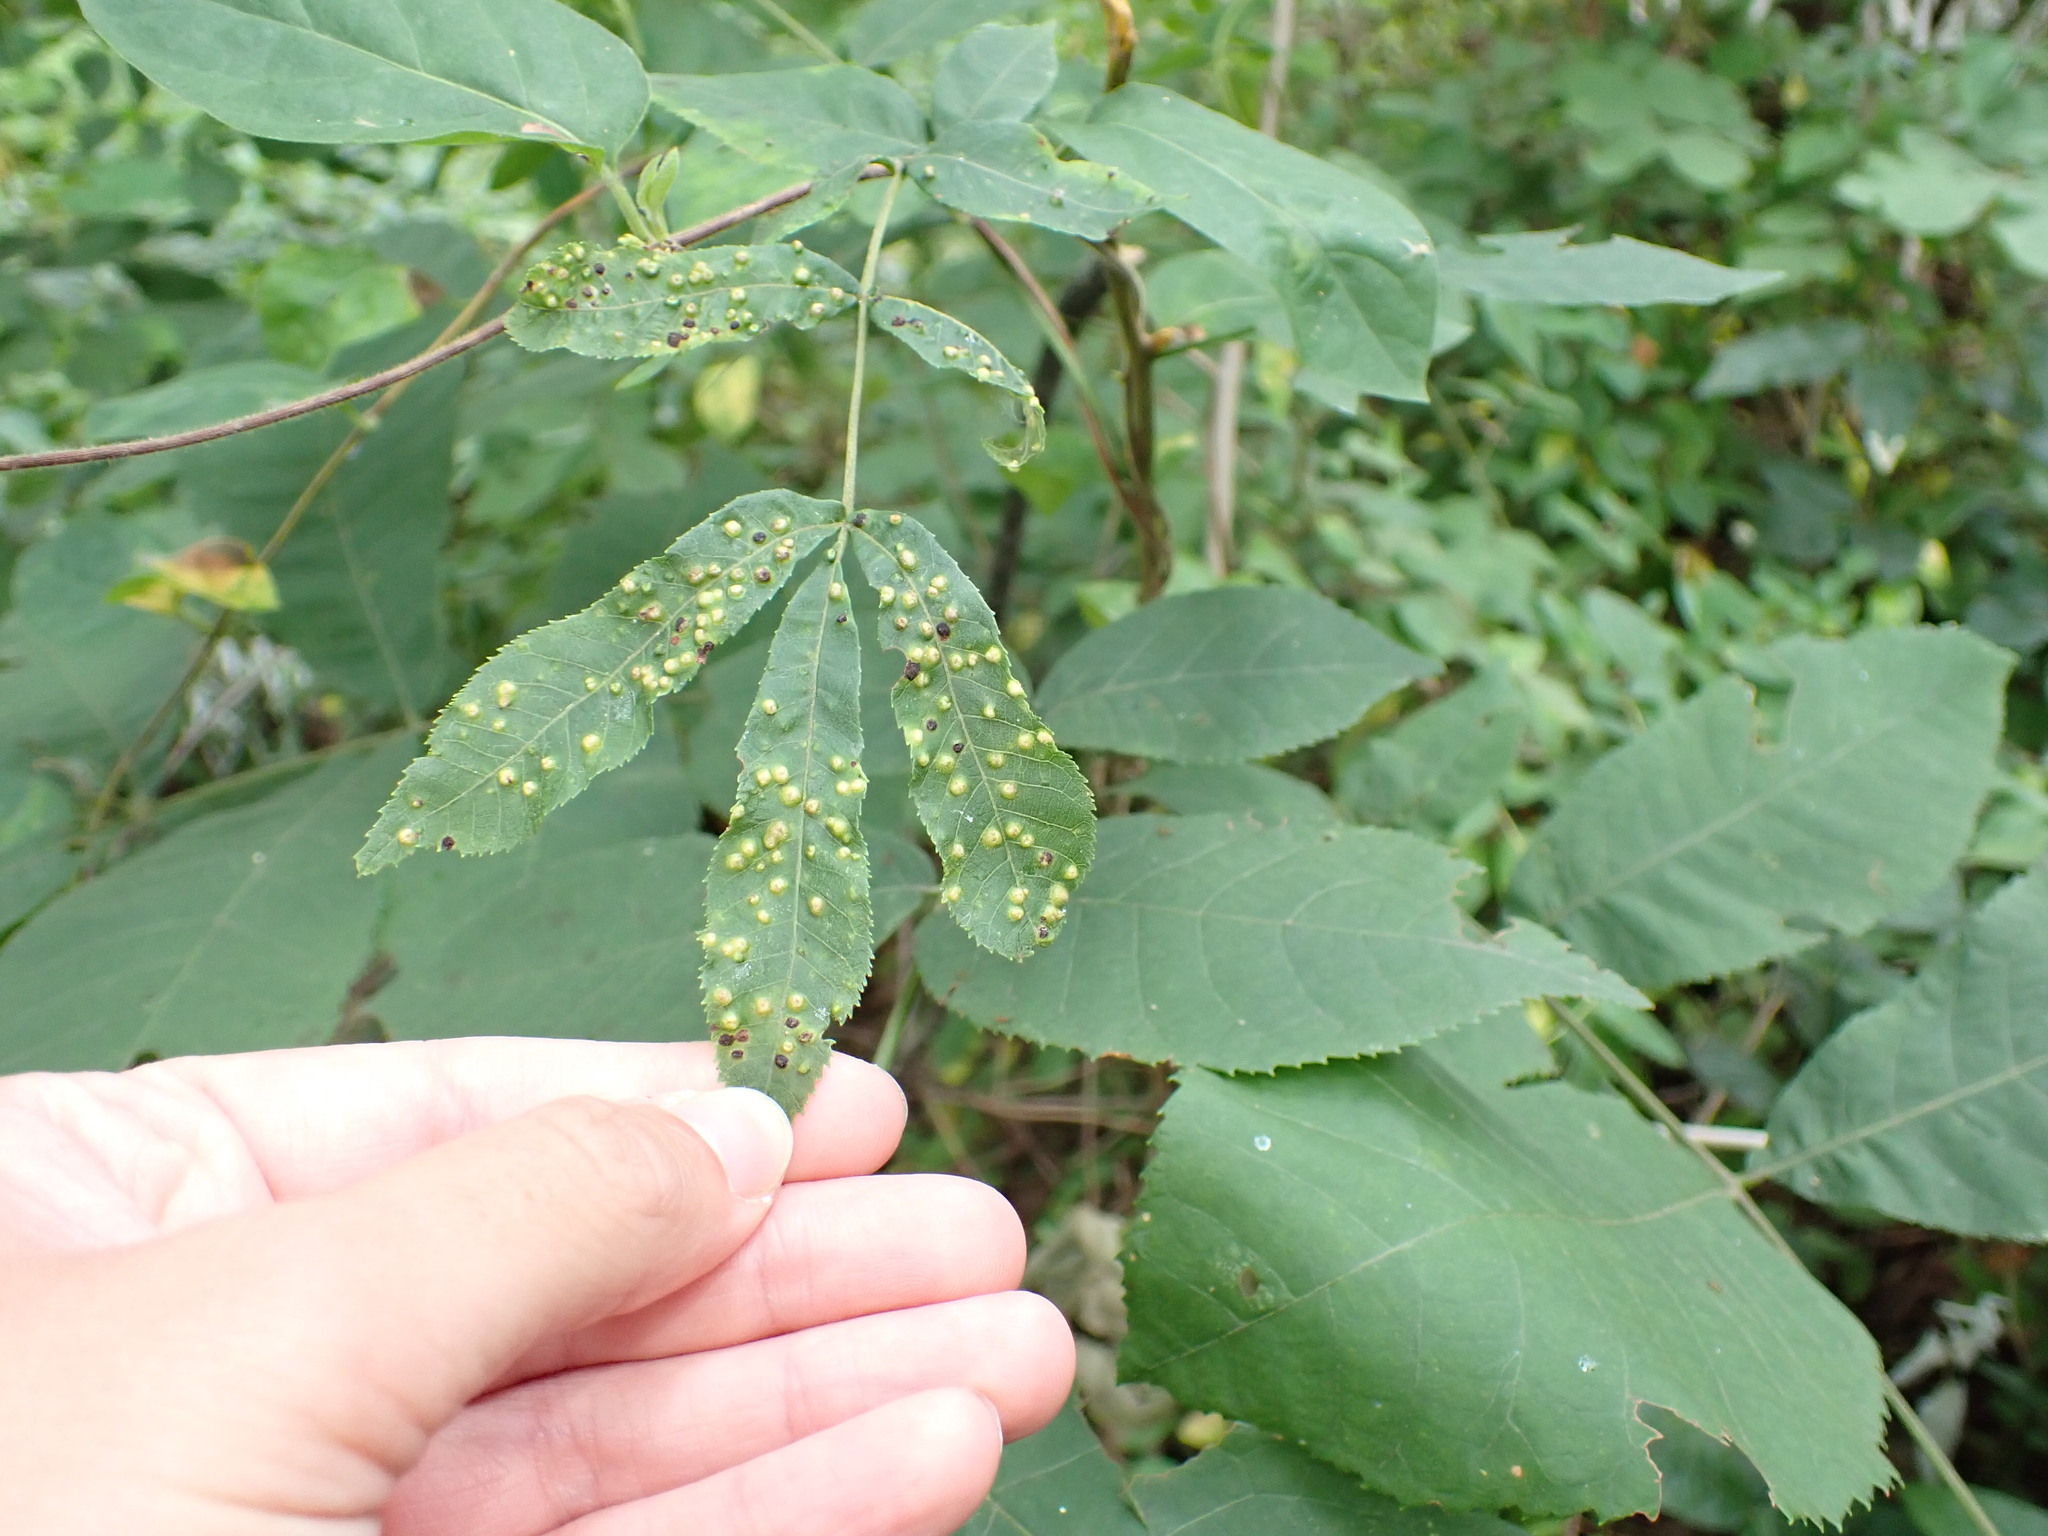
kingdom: Animalia
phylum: Arthropoda
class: Insecta
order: Hemiptera
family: Phylloxeridae
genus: Phylloxera
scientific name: Phylloxera caryae-semen
